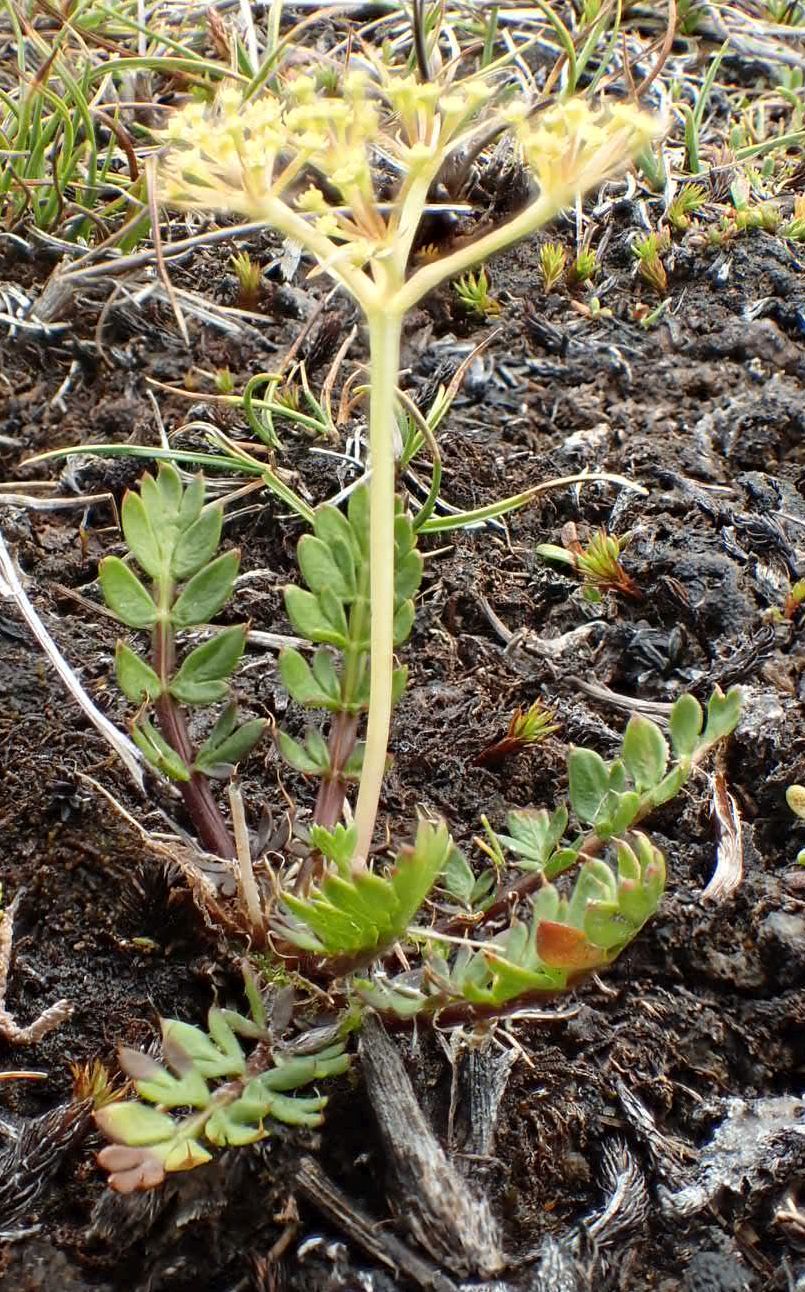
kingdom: Plantae
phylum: Tracheophyta
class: Magnoliopsida
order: Apiales
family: Apiaceae
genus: Anisotome
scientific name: Anisotome aromatica
